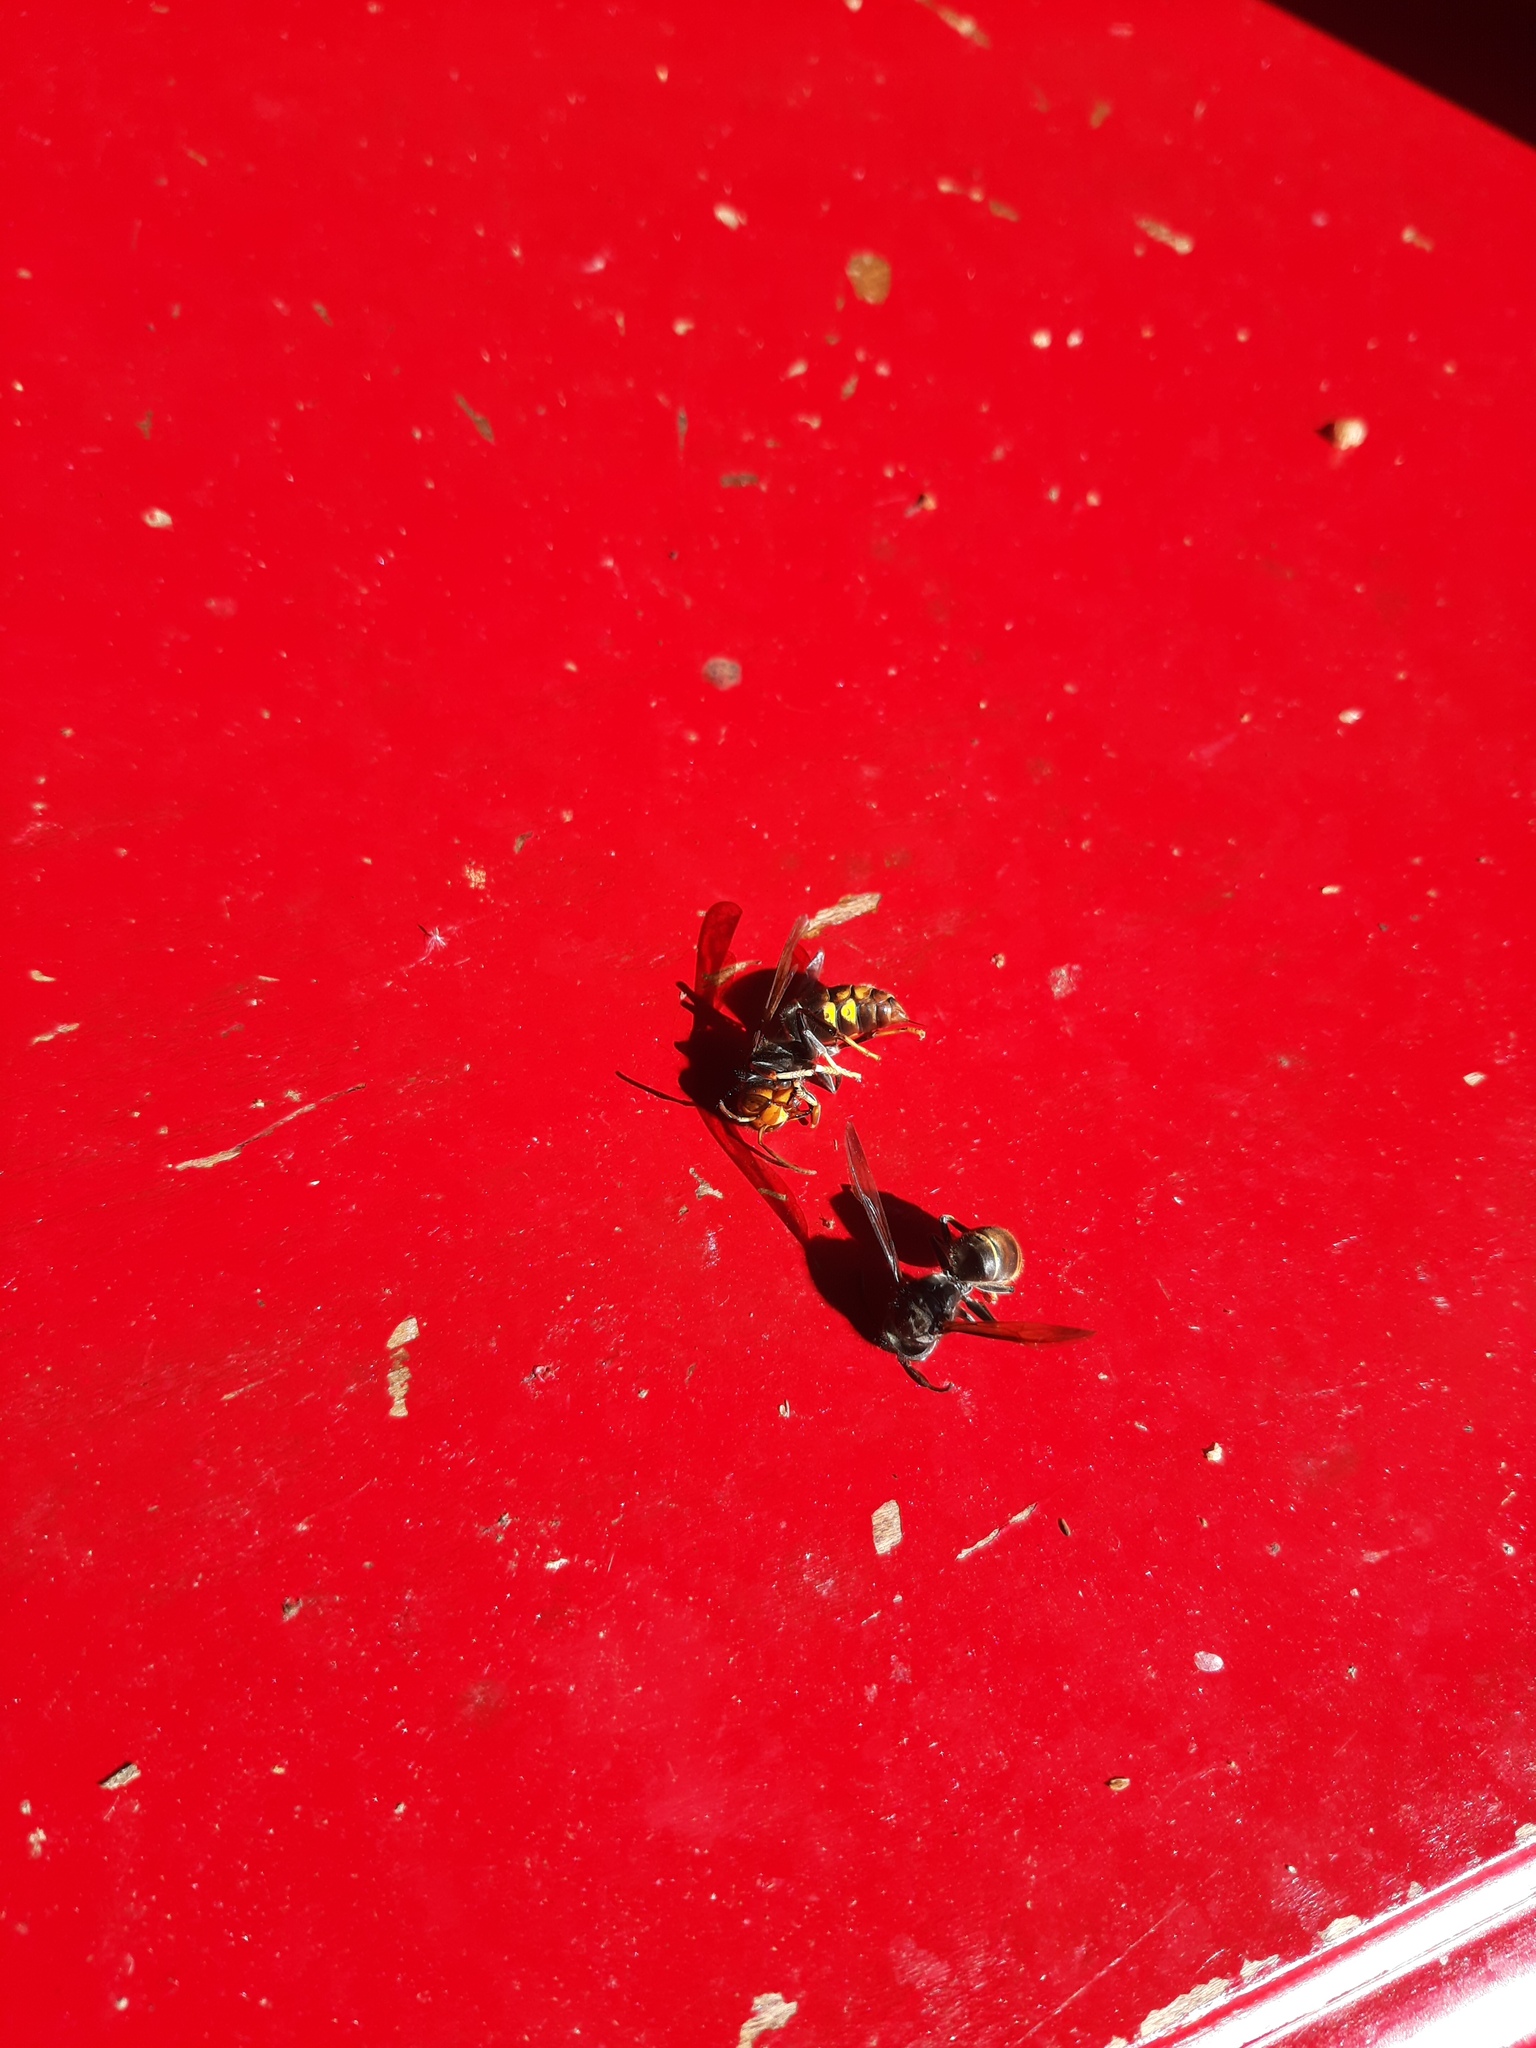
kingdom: Animalia
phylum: Arthropoda
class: Insecta
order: Hymenoptera
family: Vespidae
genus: Vespa
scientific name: Vespa velutina
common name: Asian hornet
